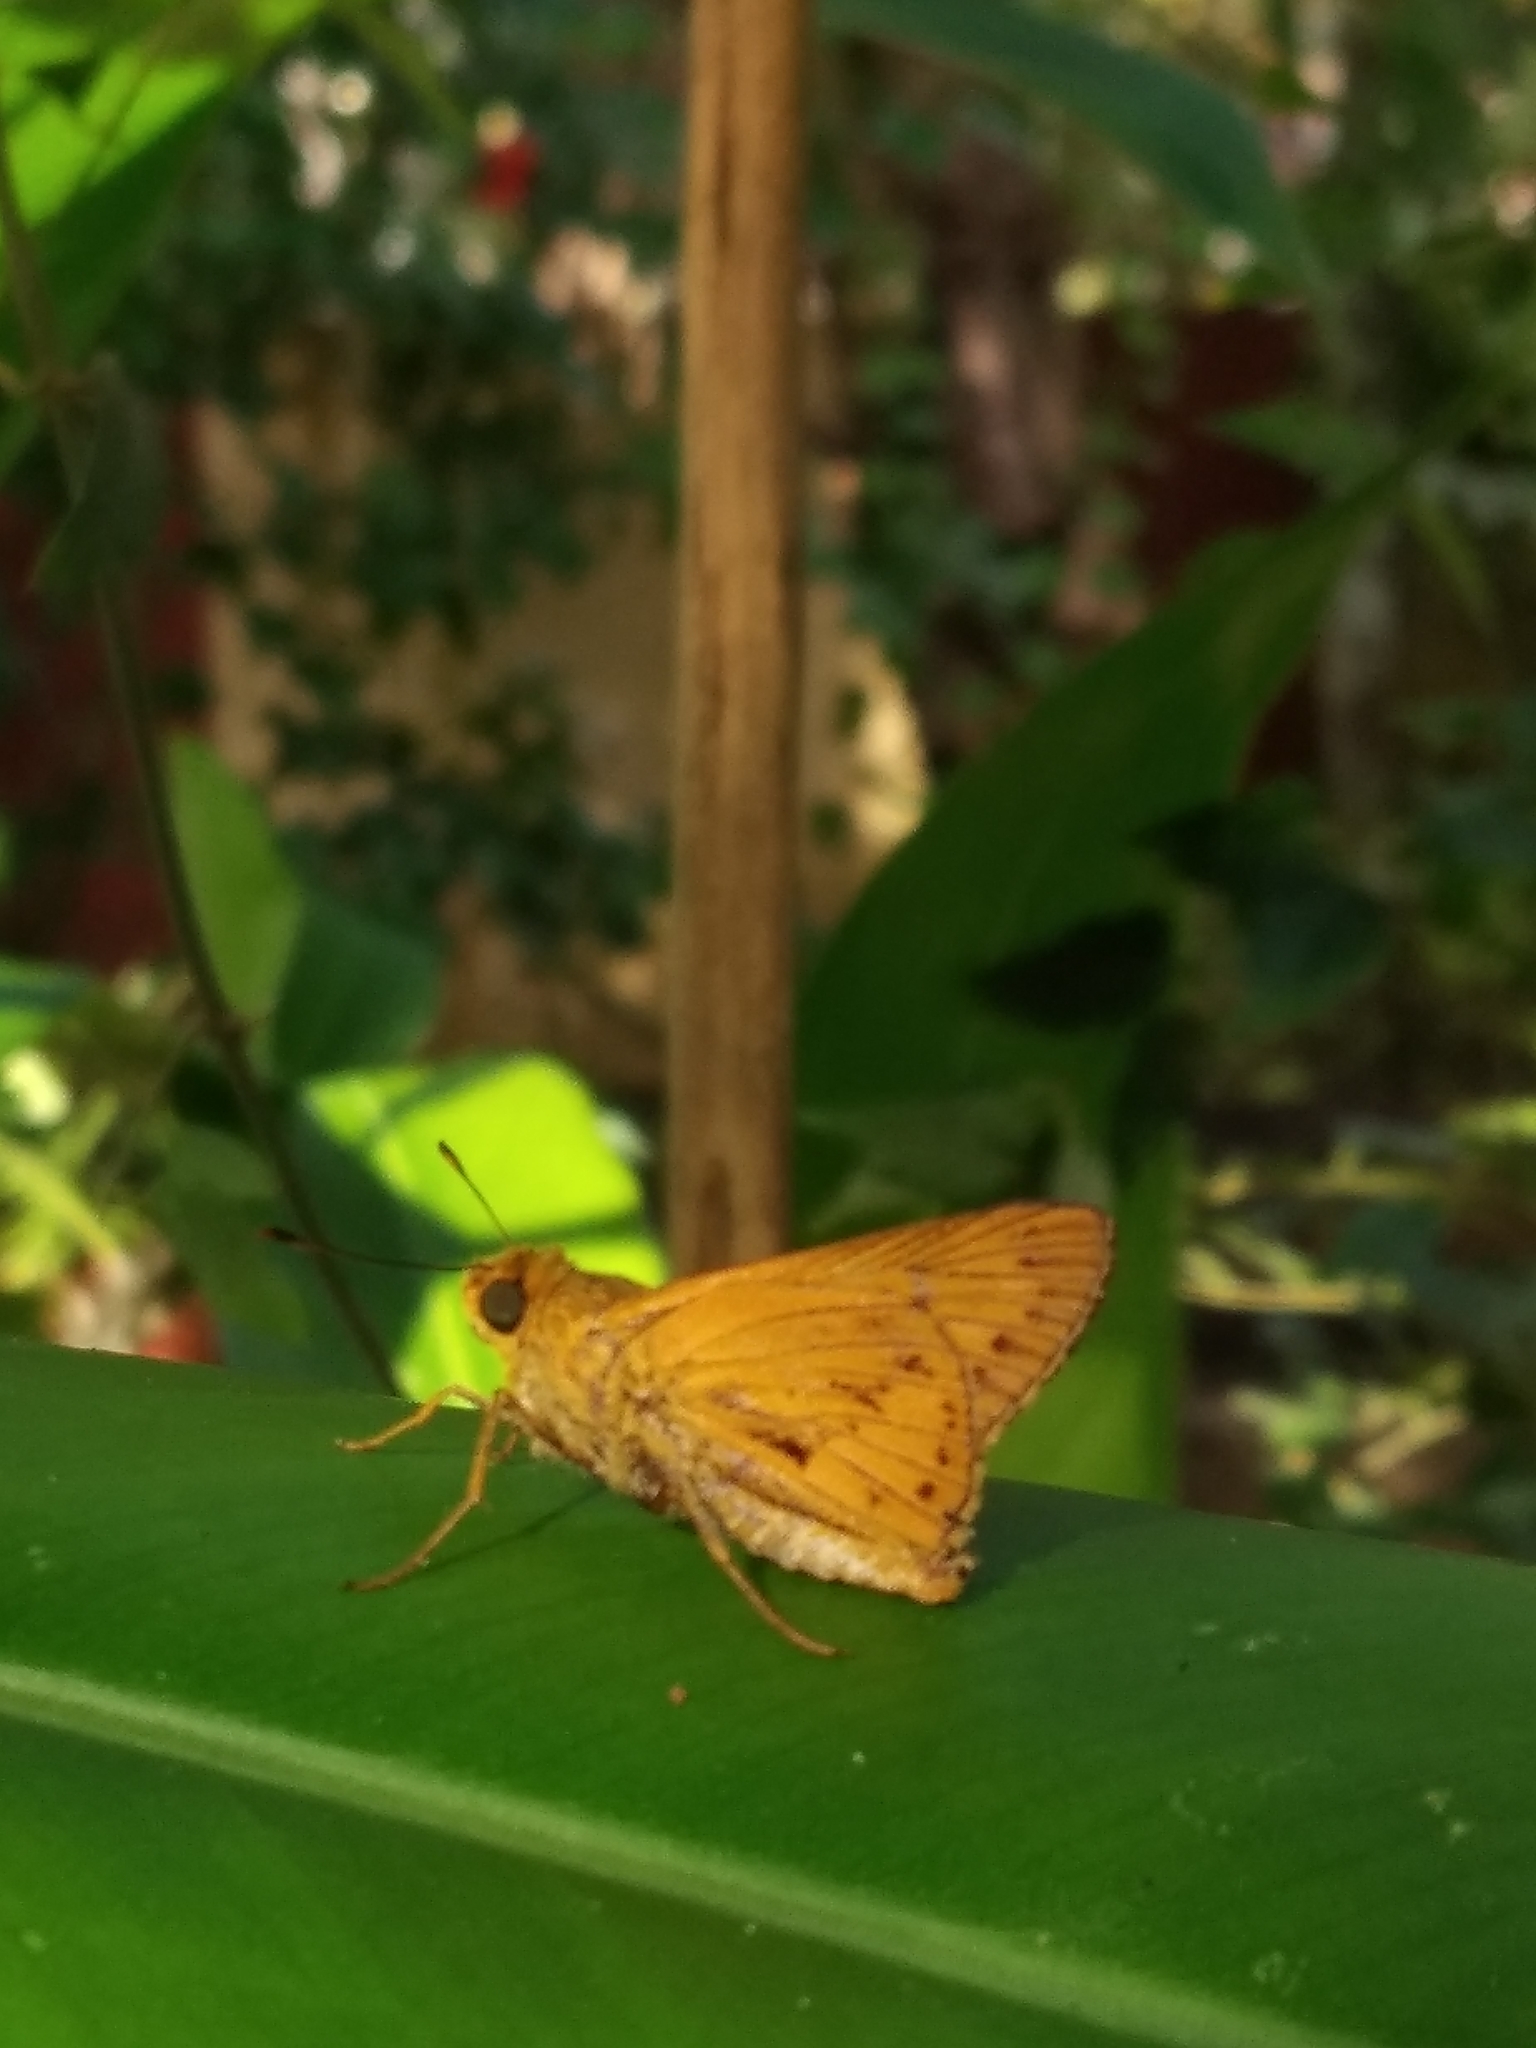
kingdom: Animalia
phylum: Arthropoda
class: Insecta
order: Lepidoptera
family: Hesperiidae
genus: Cephrenes
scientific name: Cephrenes
